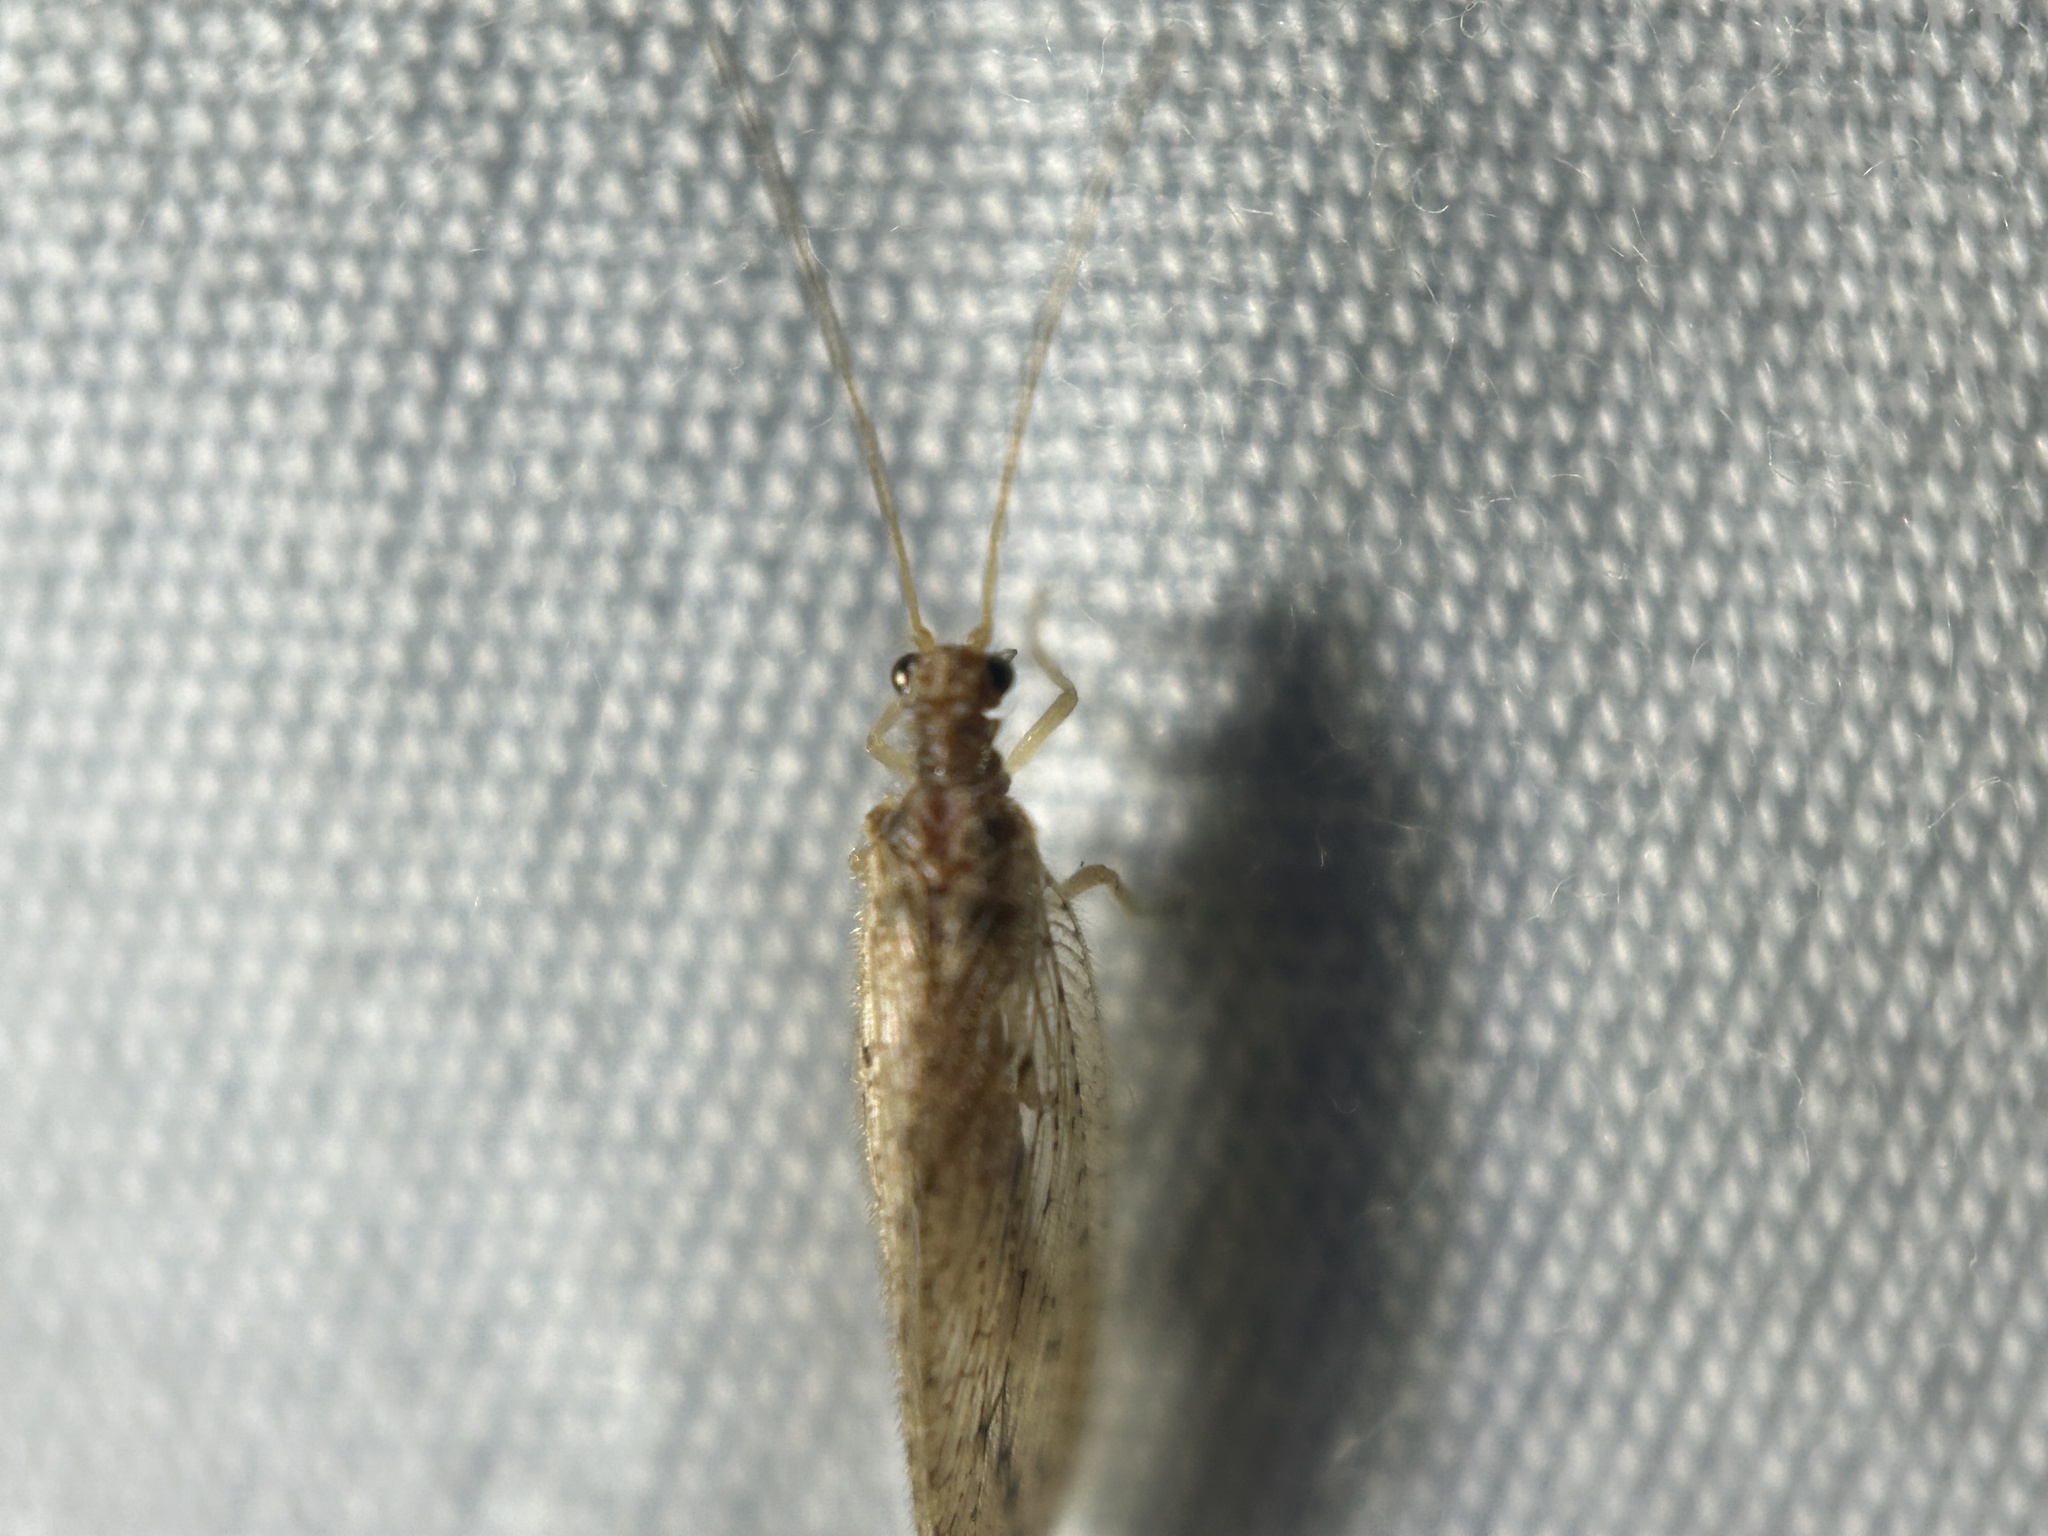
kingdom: Animalia
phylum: Arthropoda
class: Insecta
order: Neuroptera
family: Hemerobiidae
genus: Micromus
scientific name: Micromus subanticus
